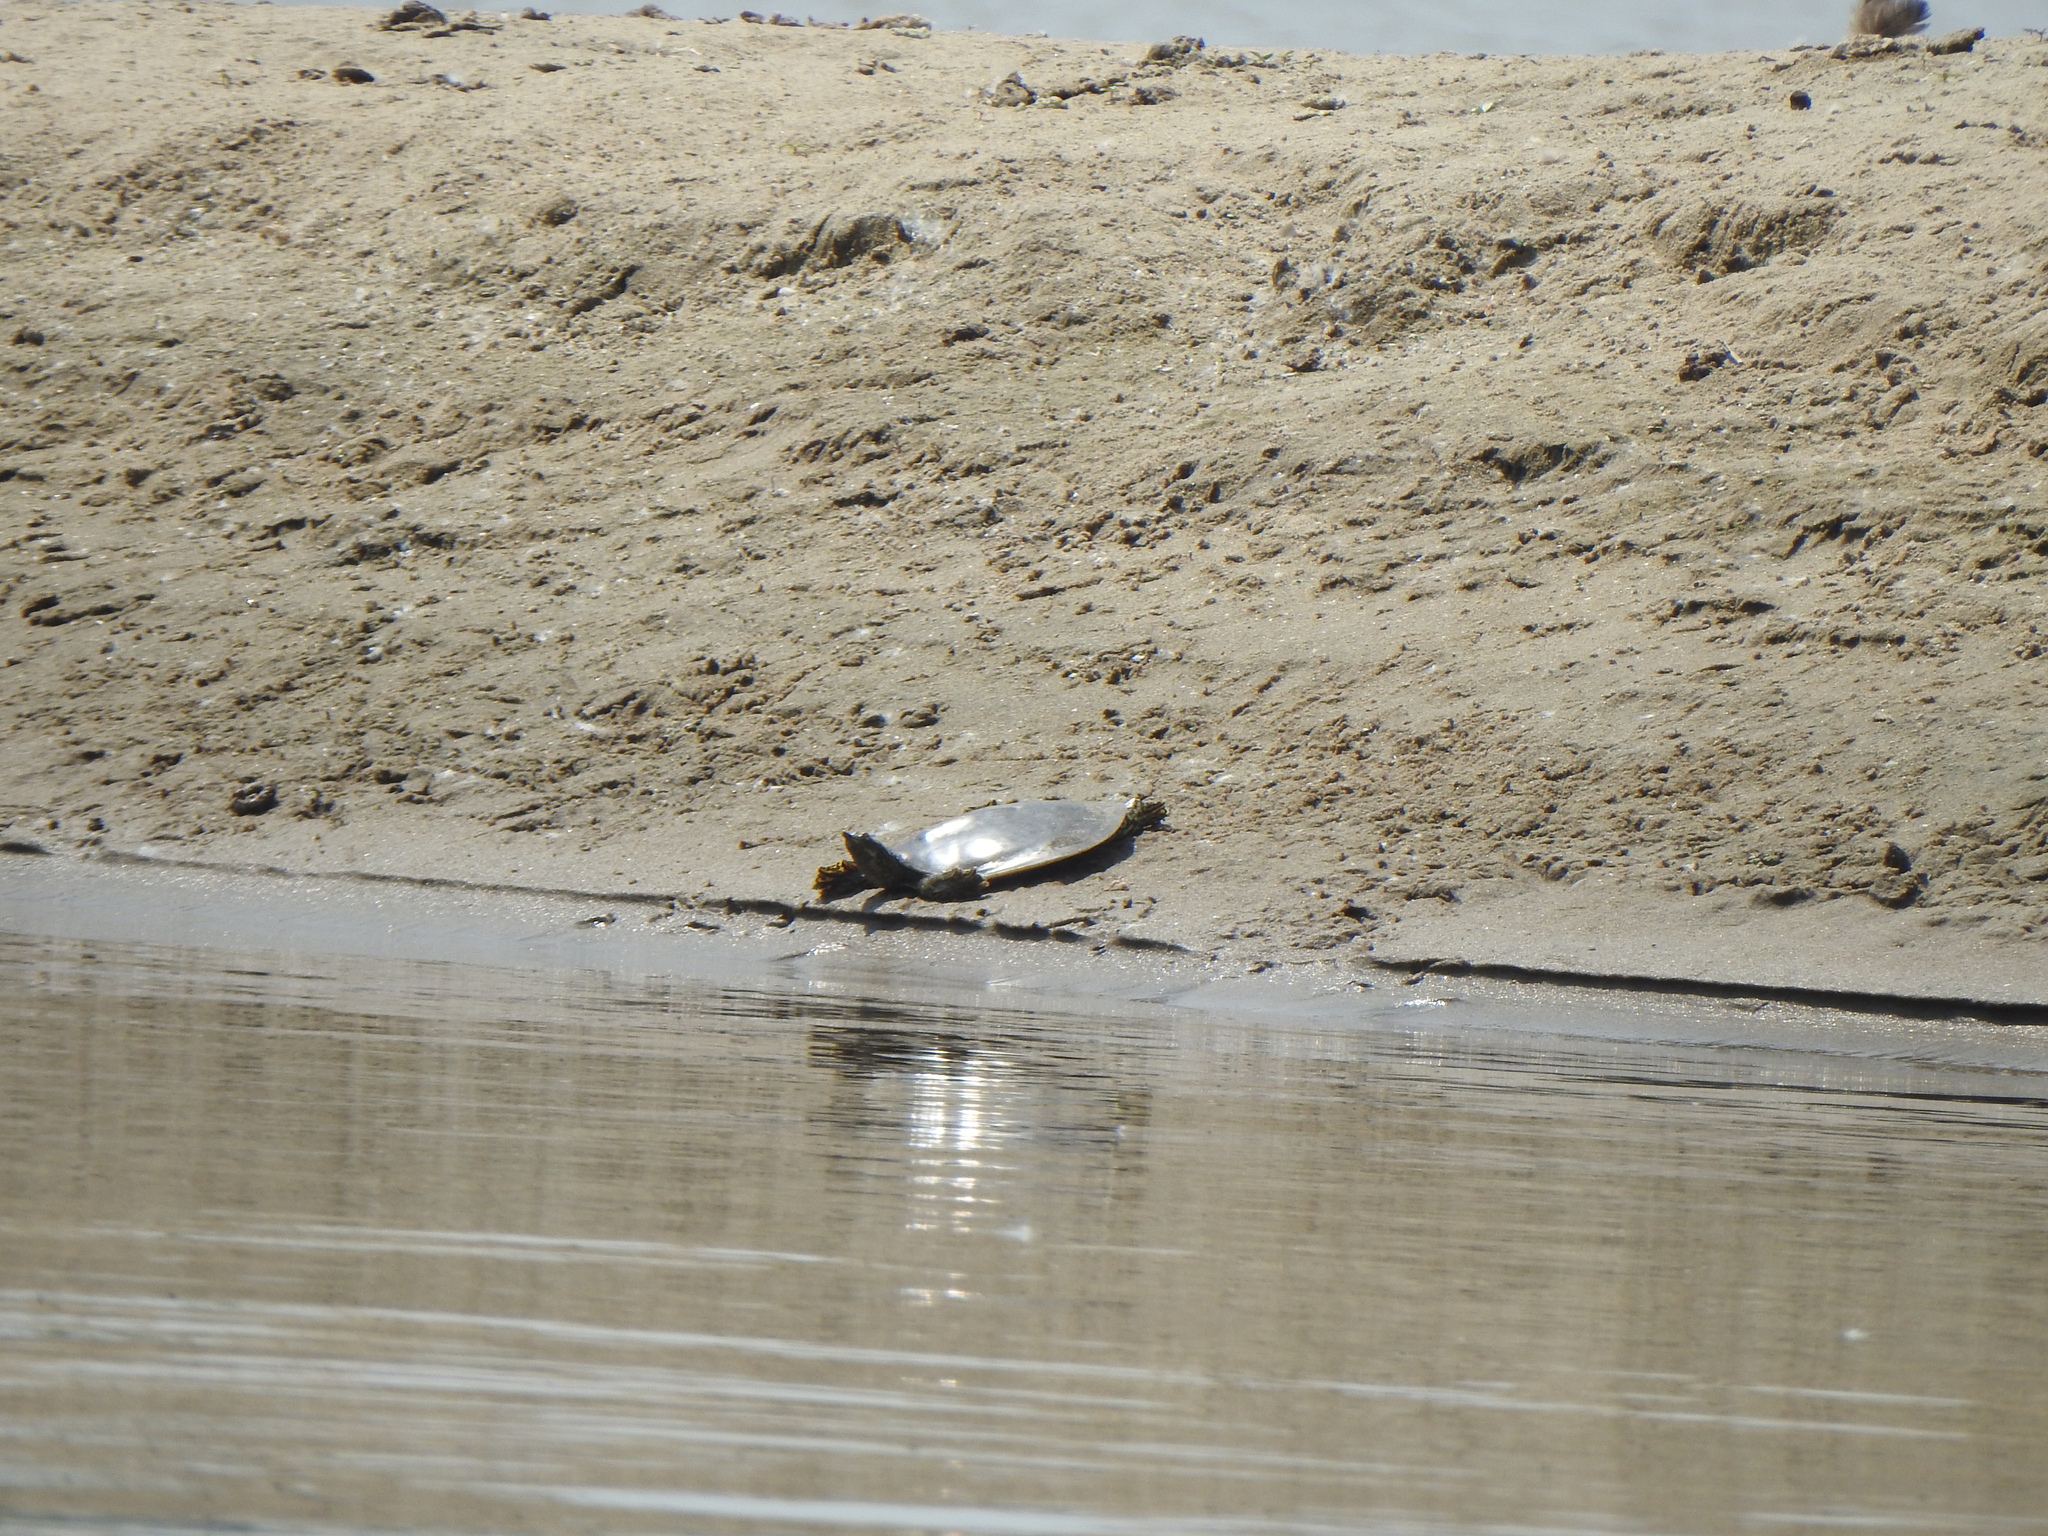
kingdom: Animalia
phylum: Chordata
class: Testudines
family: Trionychidae
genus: Apalone
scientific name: Apalone spinifera
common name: Spiny softshell turtle
